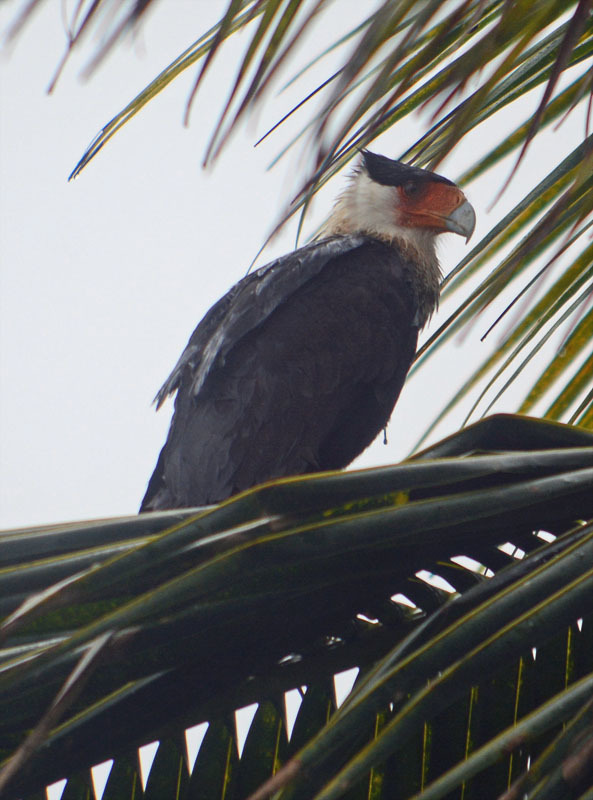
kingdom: Animalia
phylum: Chordata
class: Aves
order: Falconiformes
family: Falconidae
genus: Caracara
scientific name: Caracara plancus
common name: Southern caracara
